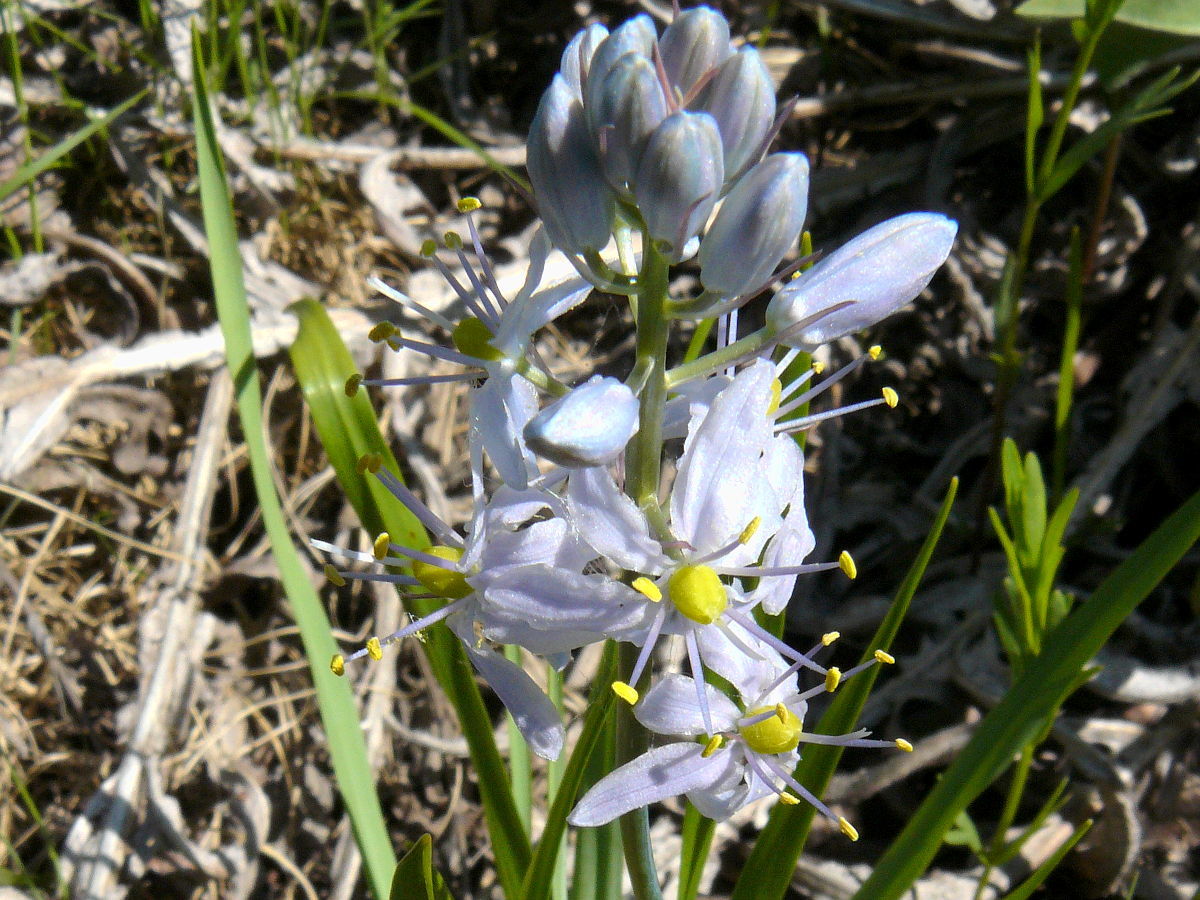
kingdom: Plantae
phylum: Tracheophyta
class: Liliopsida
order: Asparagales
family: Asparagaceae
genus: Camassia
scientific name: Camassia scilloides
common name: Wild hyacinth
